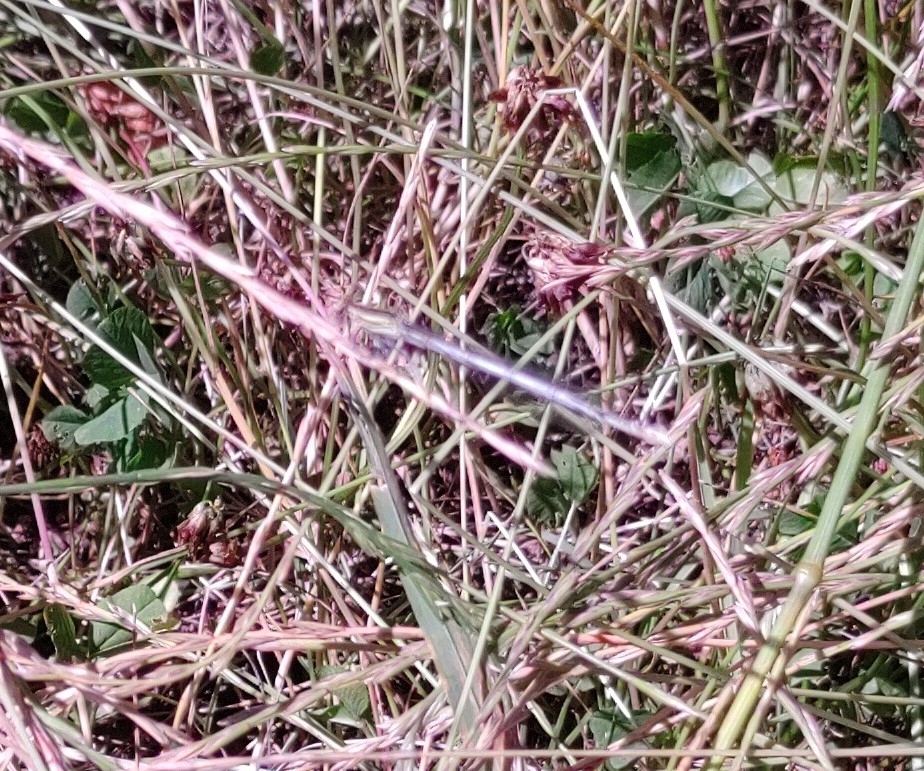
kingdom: Animalia
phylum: Arthropoda
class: Insecta
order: Odonata
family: Platycnemididae
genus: Platycnemis
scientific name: Platycnemis pennipes
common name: White-legged damselfly
